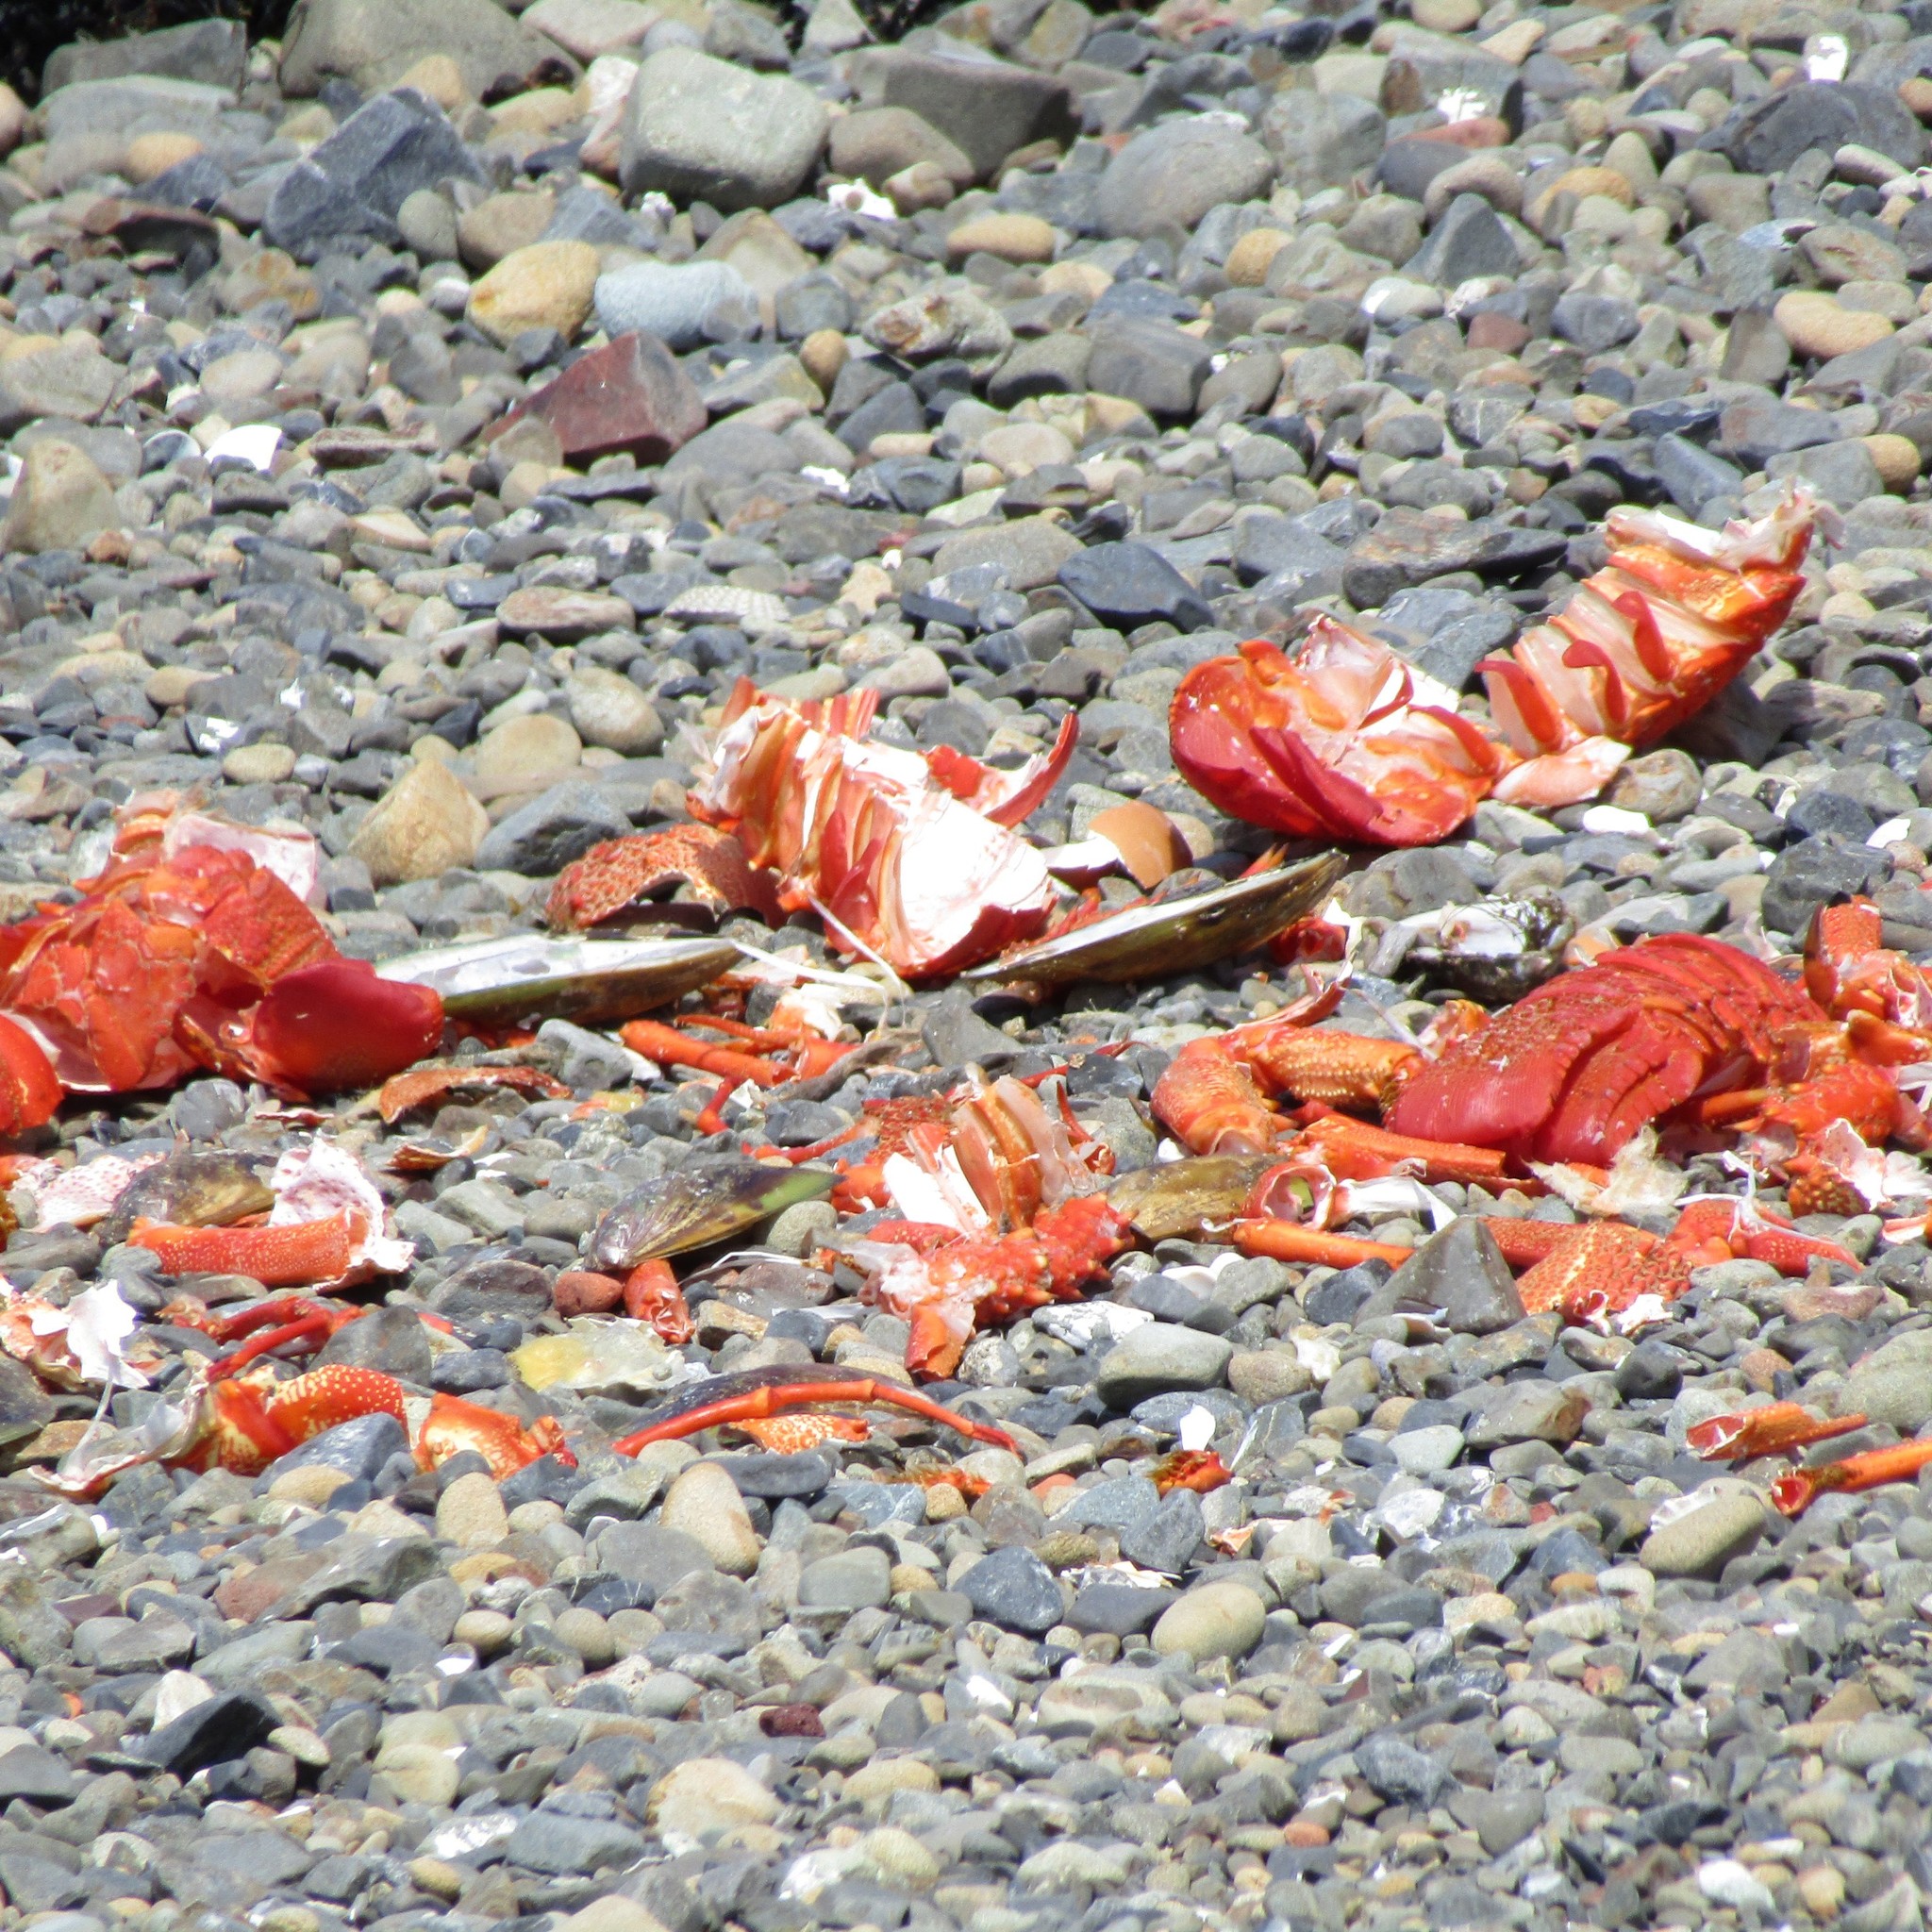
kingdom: Animalia
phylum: Arthropoda
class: Malacostraca
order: Decapoda
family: Palinuridae
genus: Jasus
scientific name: Jasus edwardsii
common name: Red rock lobster
